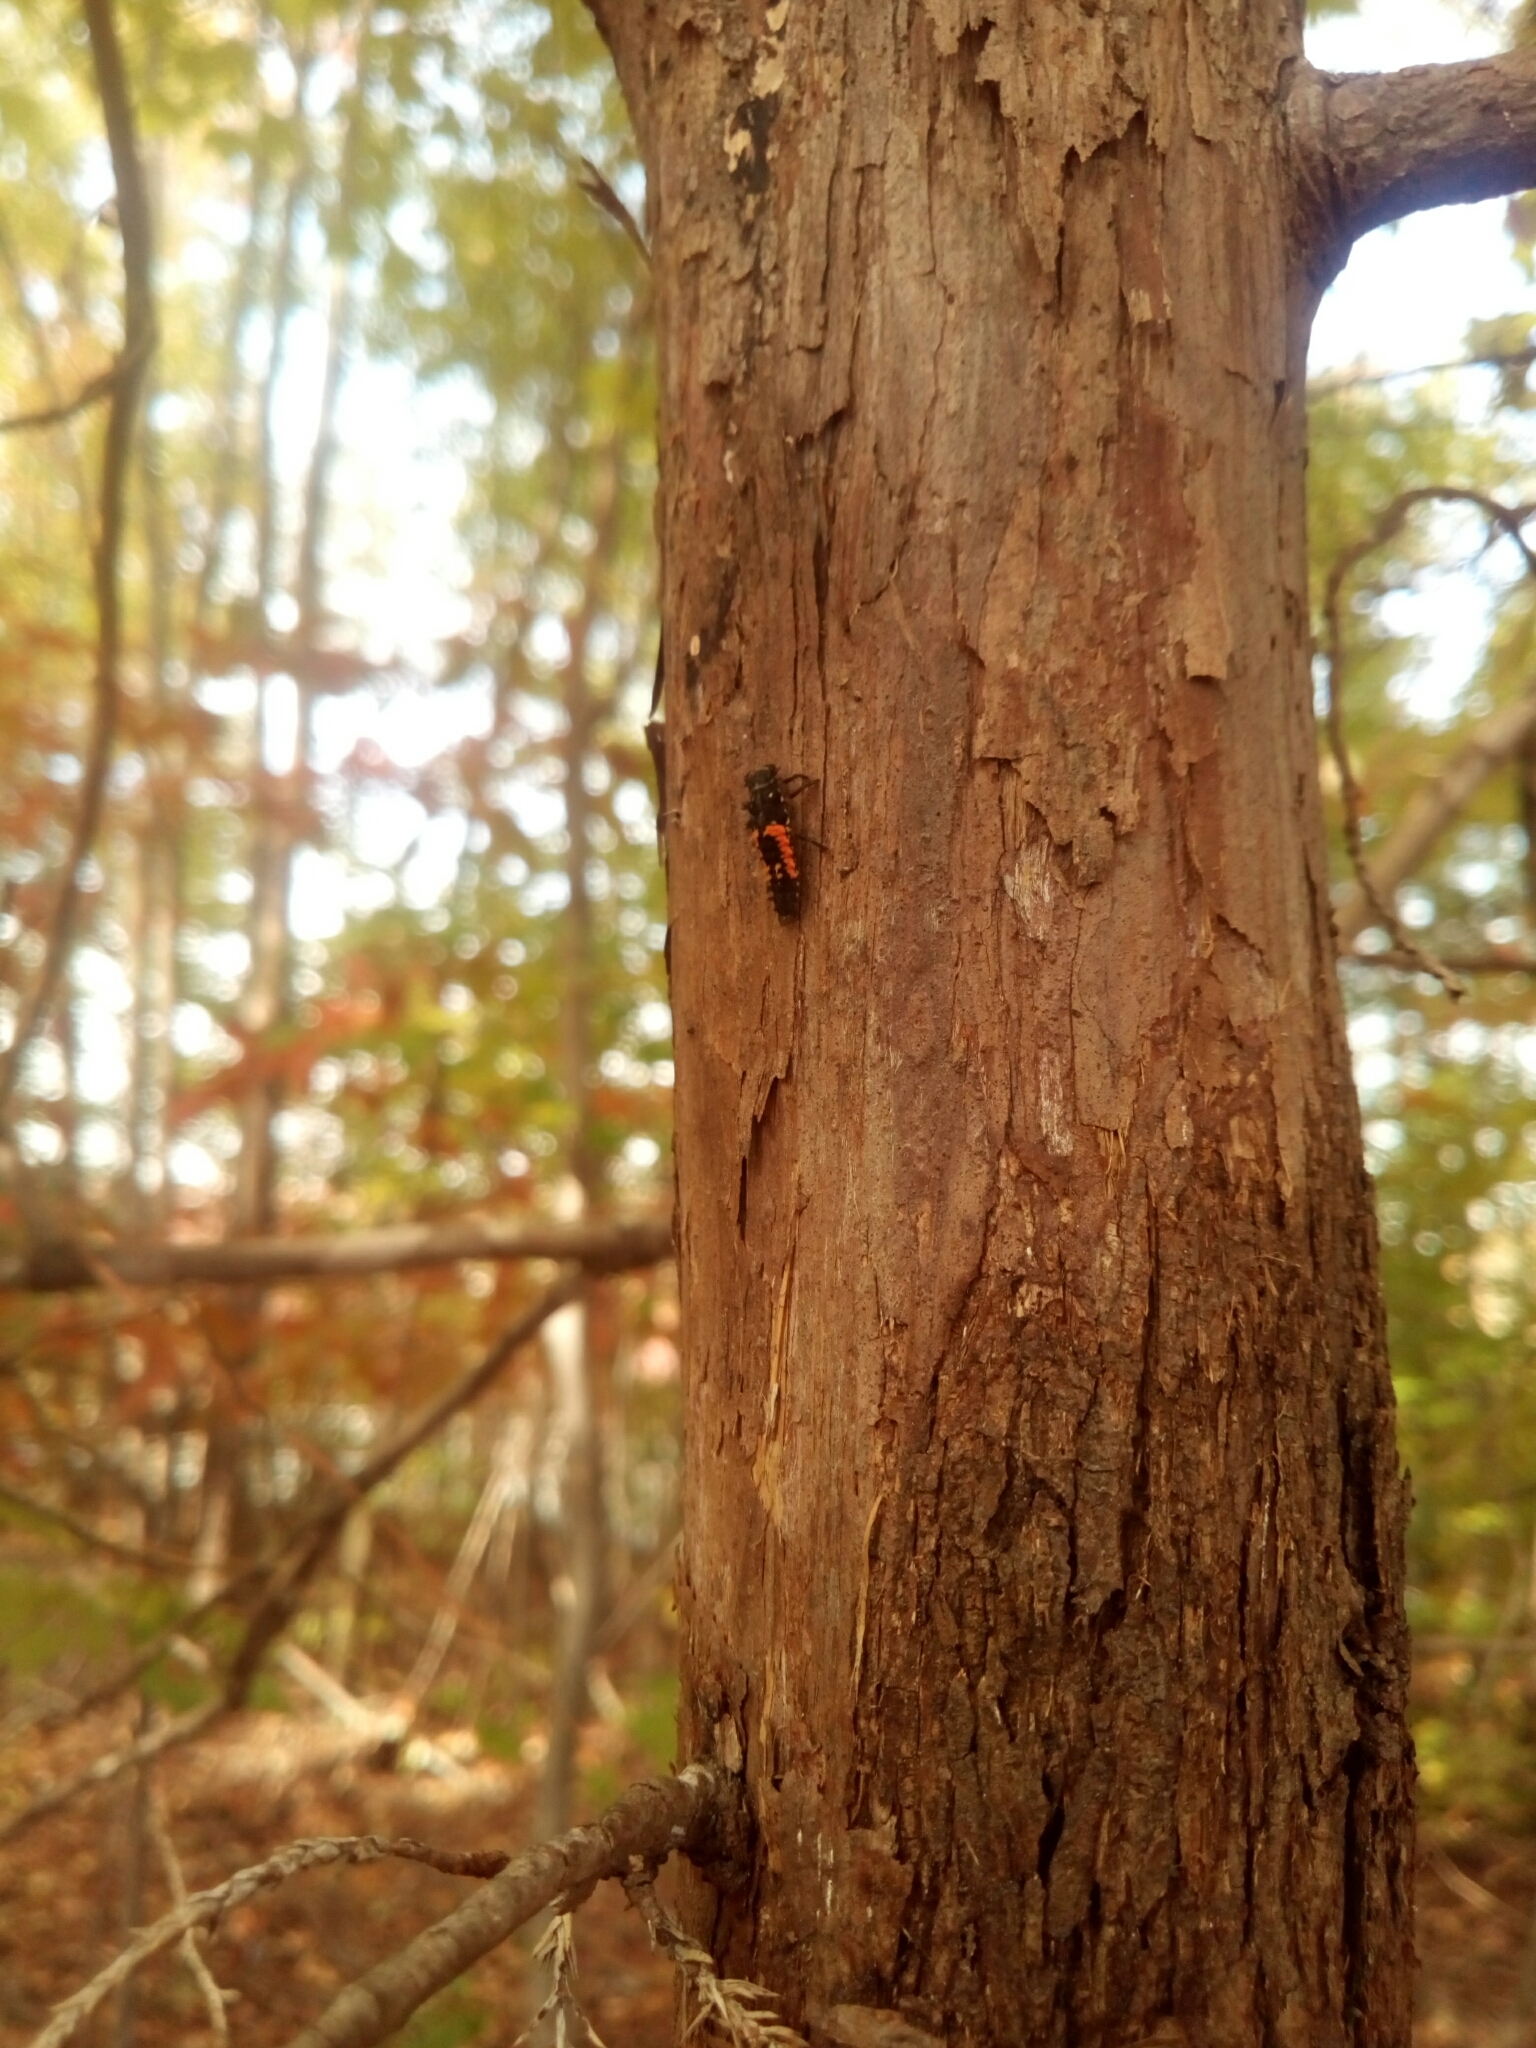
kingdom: Animalia
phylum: Arthropoda
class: Insecta
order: Coleoptera
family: Coccinellidae
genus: Harmonia
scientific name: Harmonia axyridis
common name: Harlequin ladybird
